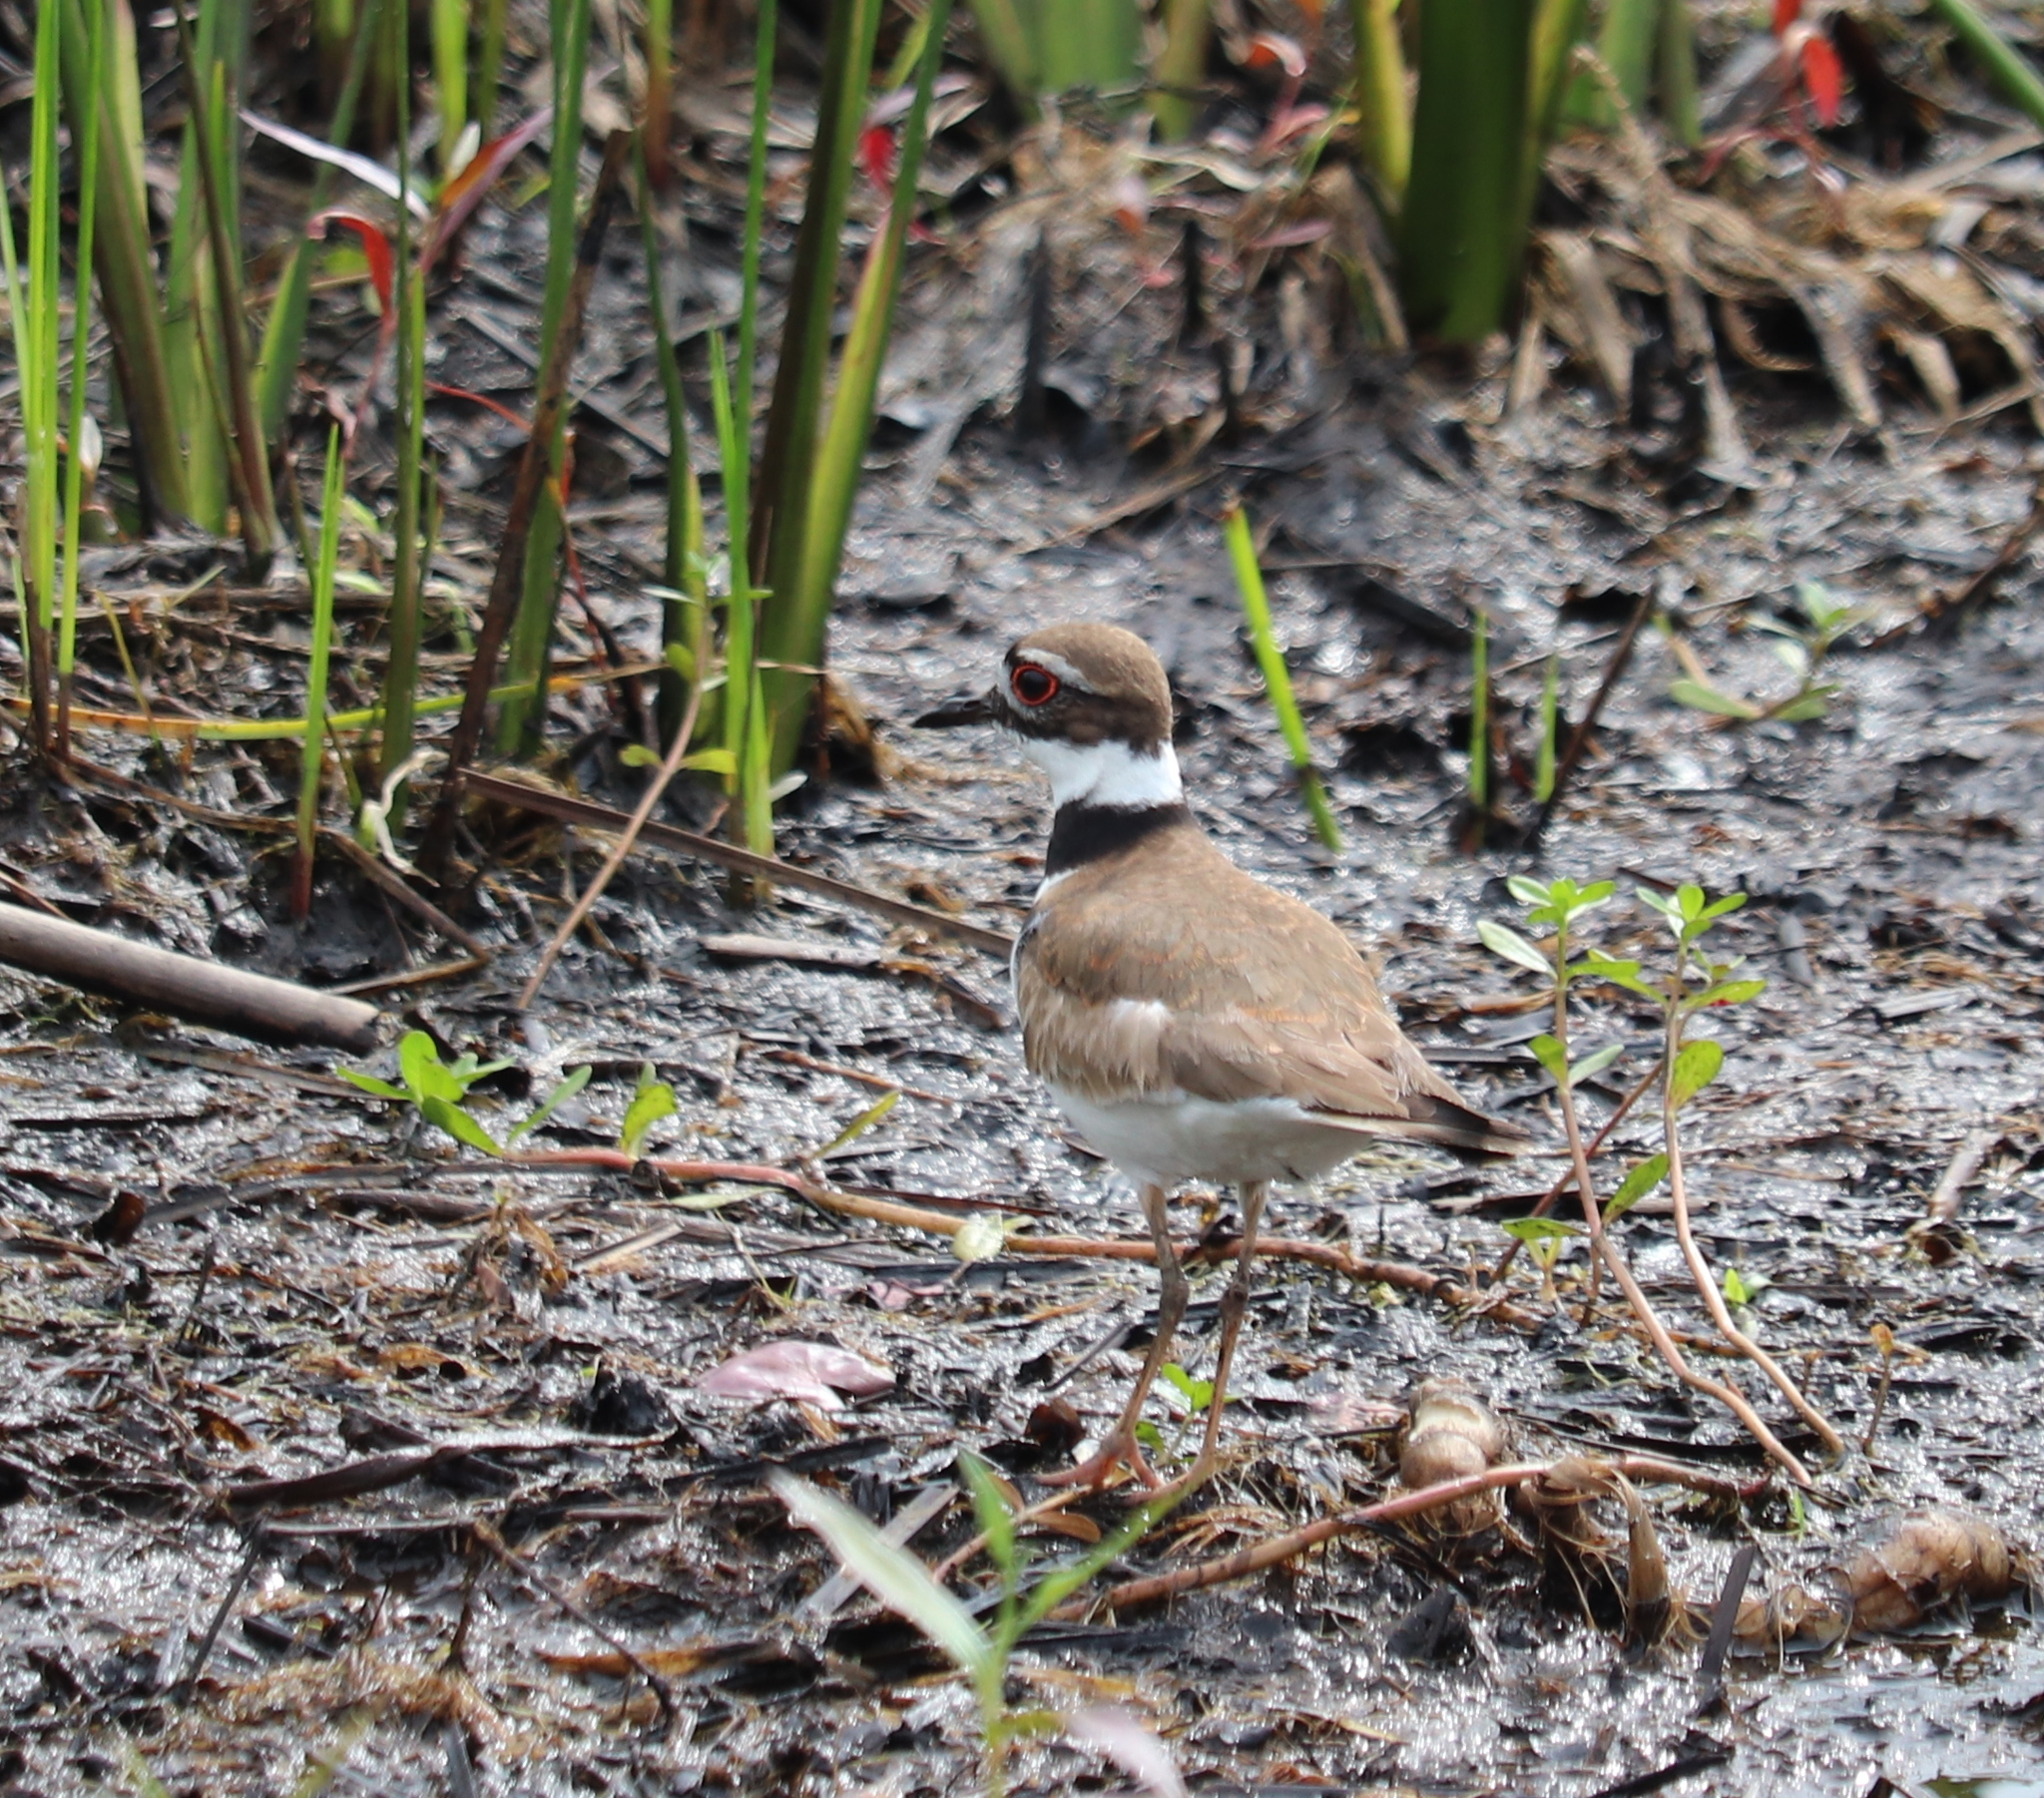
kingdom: Animalia
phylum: Chordata
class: Aves
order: Charadriiformes
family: Charadriidae
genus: Charadrius
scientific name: Charadrius vociferus
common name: Killdeer
